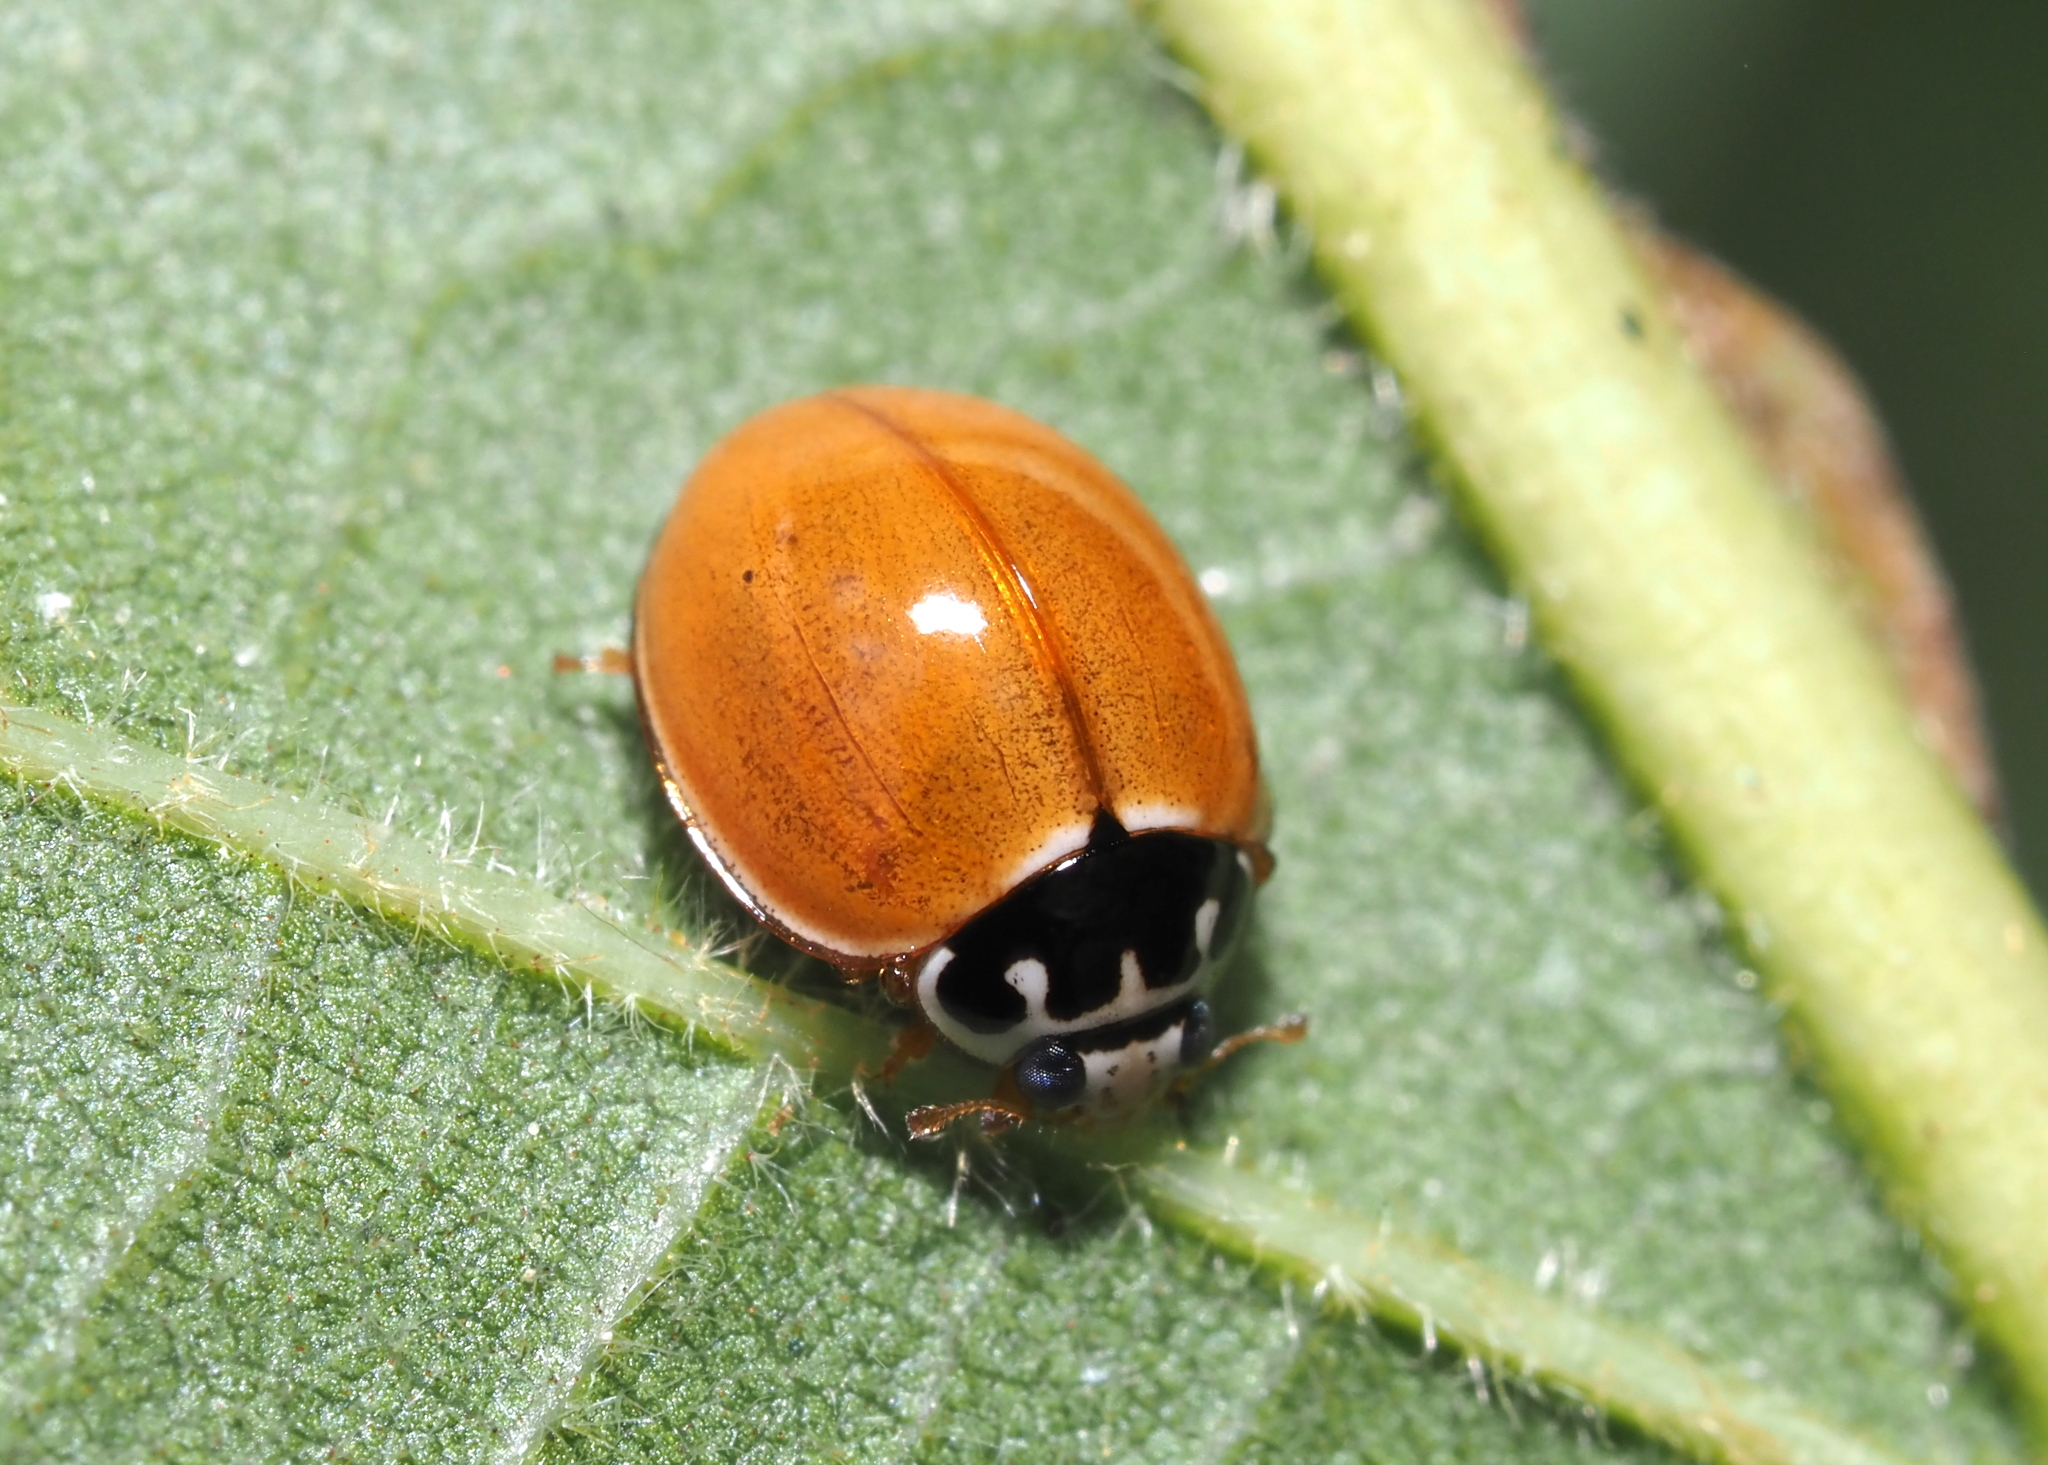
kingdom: Animalia
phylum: Arthropoda
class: Insecta
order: Coleoptera
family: Coccinellidae
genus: Cycloneda
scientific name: Cycloneda munda
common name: Polished lady beetle
